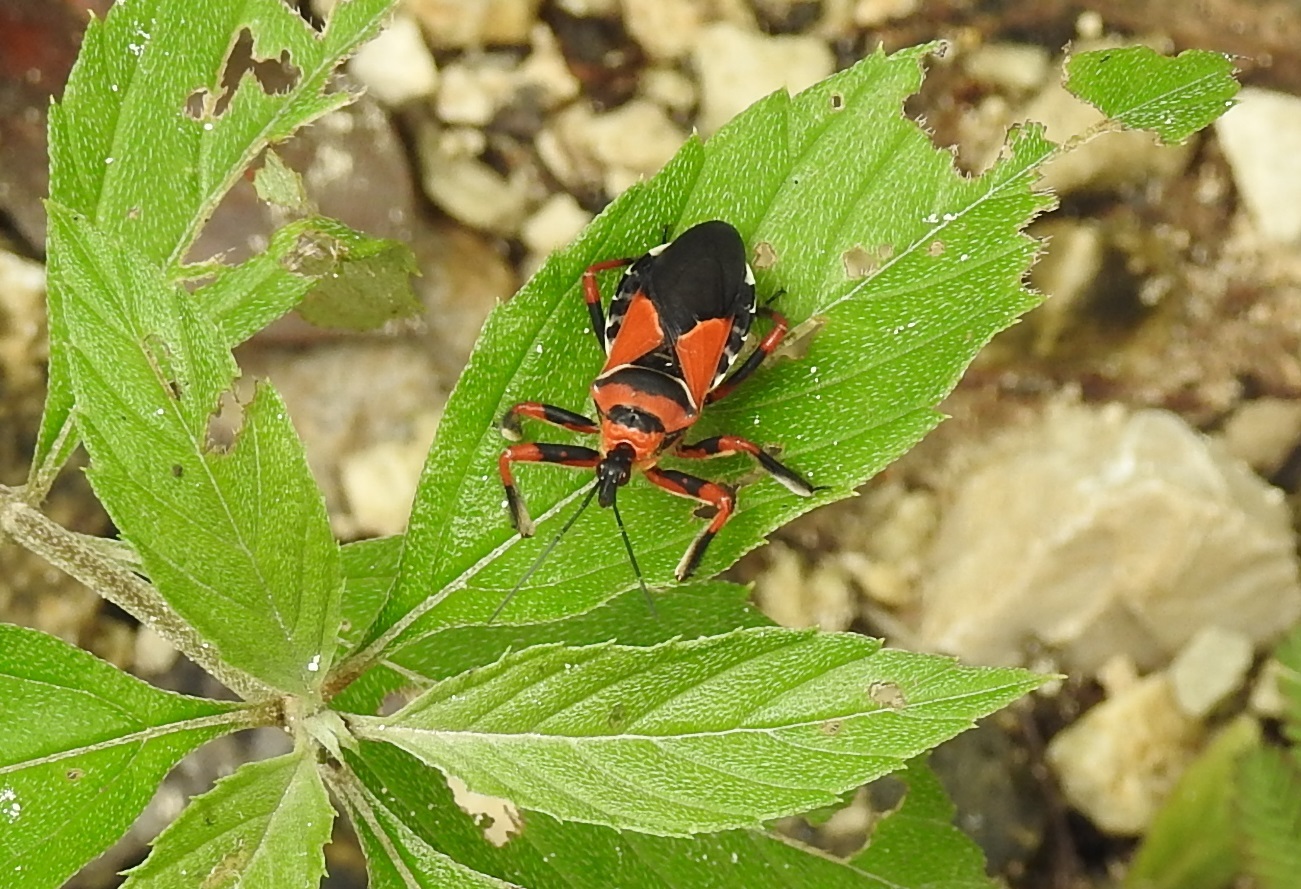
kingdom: Animalia
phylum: Arthropoda
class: Insecta
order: Hemiptera
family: Reduviidae
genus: Apiomerus
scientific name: Apiomerus pictipes
